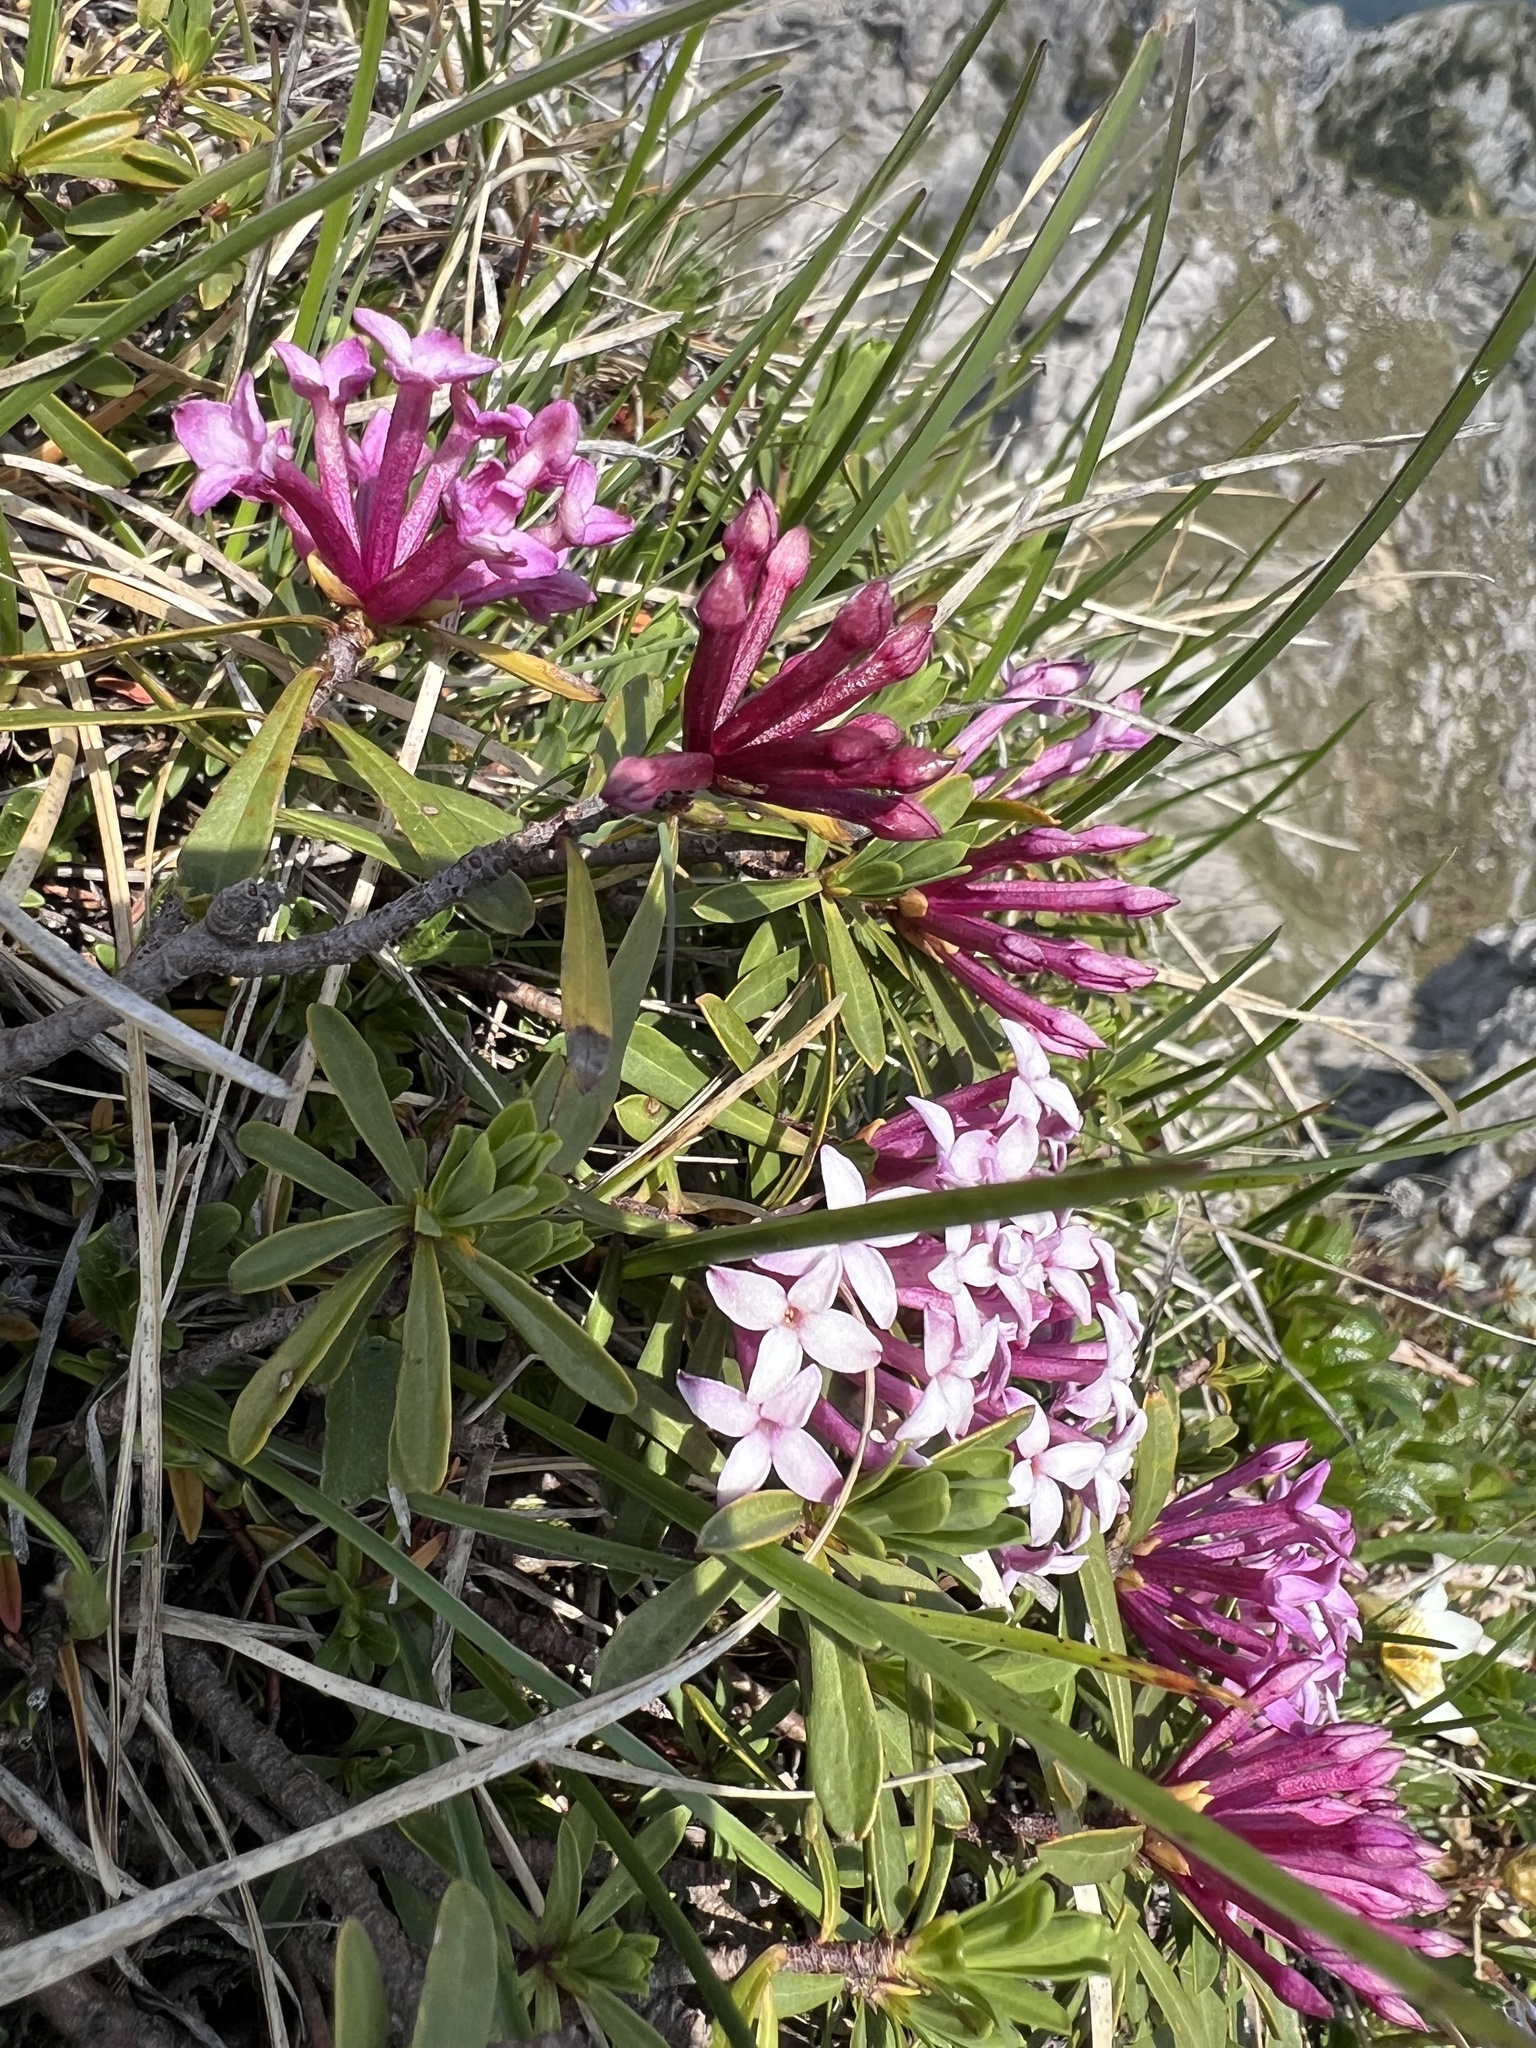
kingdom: Plantae
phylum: Tracheophyta
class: Magnoliopsida
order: Malvales
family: Thymelaeaceae
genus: Daphne
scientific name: Daphne striata
